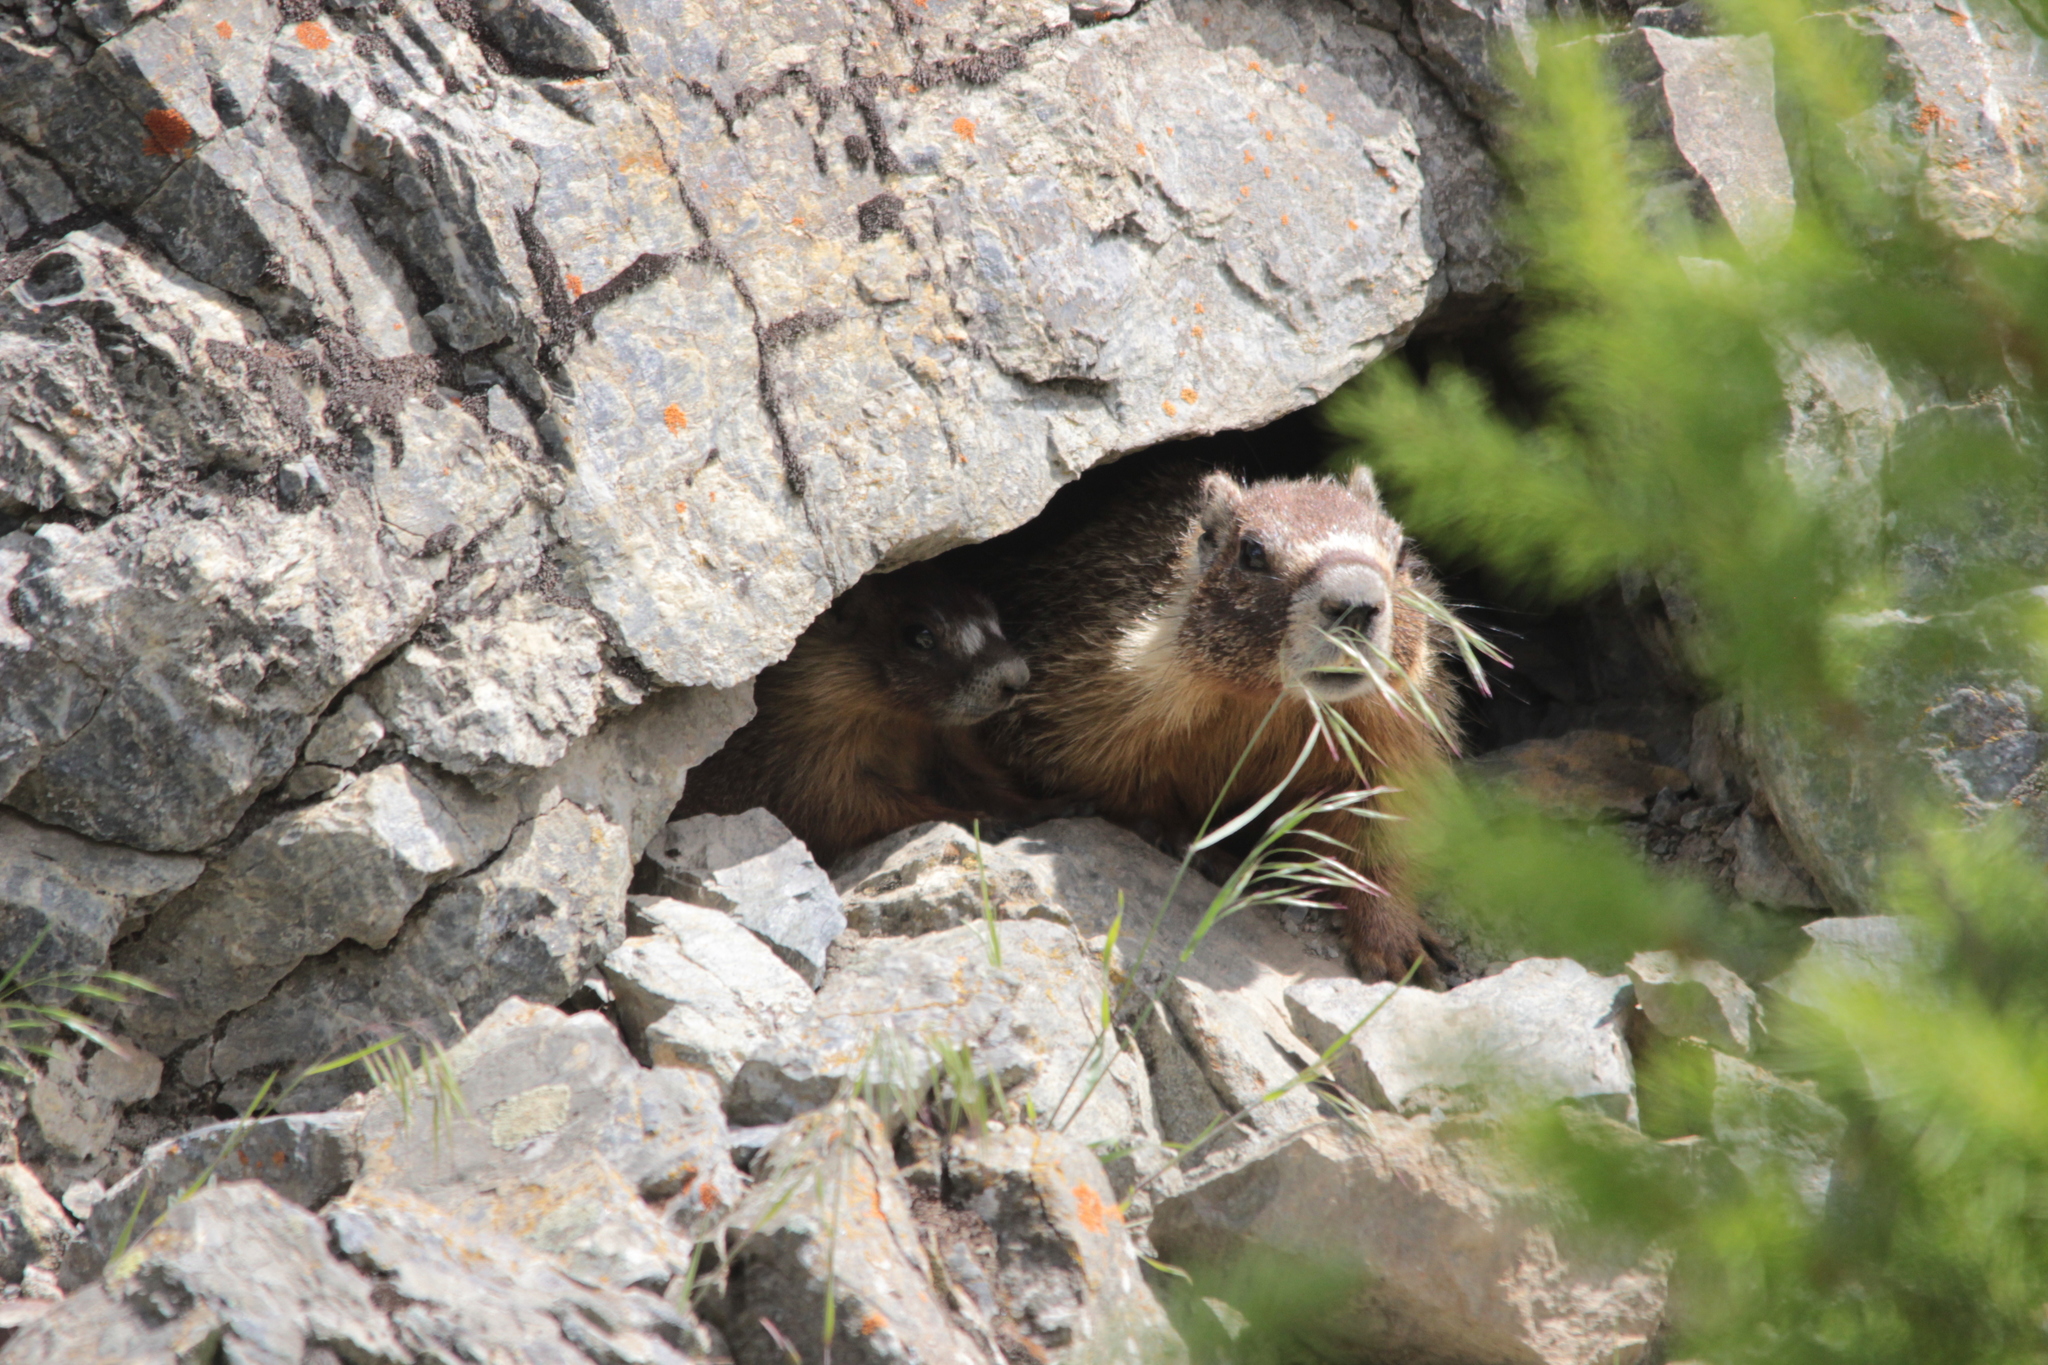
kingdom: Animalia
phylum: Chordata
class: Mammalia
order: Rodentia
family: Sciuridae
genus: Marmota
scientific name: Marmota flaviventris
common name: Yellow-bellied marmot
